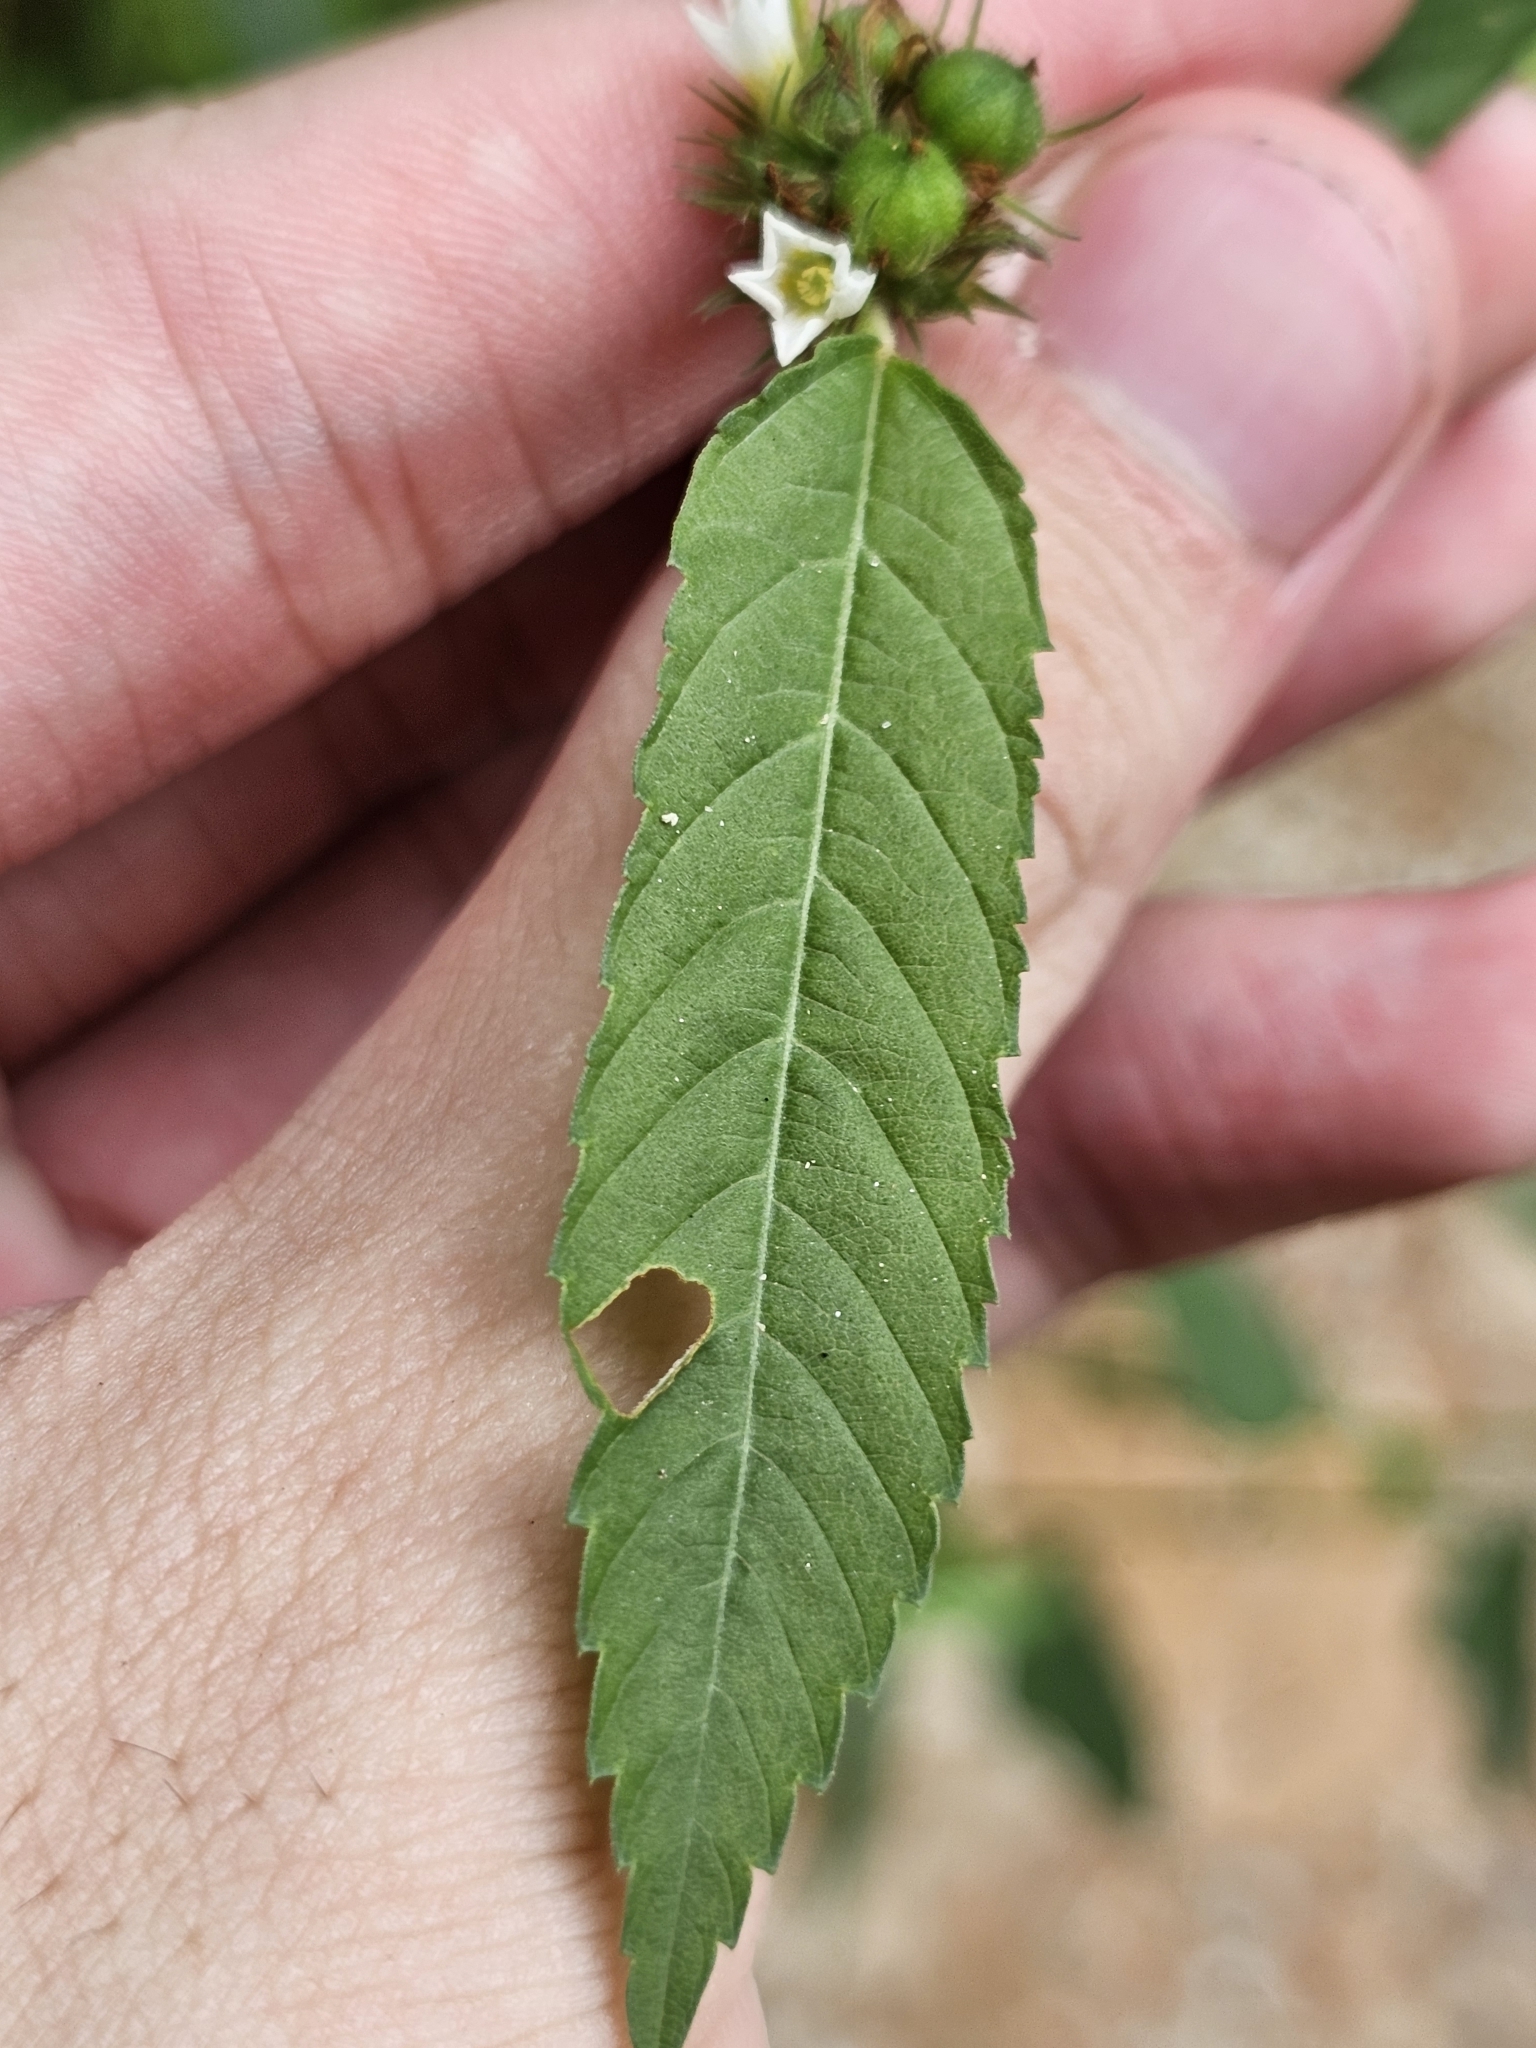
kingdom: Plantae
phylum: Tracheophyta
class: Magnoliopsida
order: Malvales
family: Malvaceae
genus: Melochia
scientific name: Melochia corchorifolia
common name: Chocolateweed
